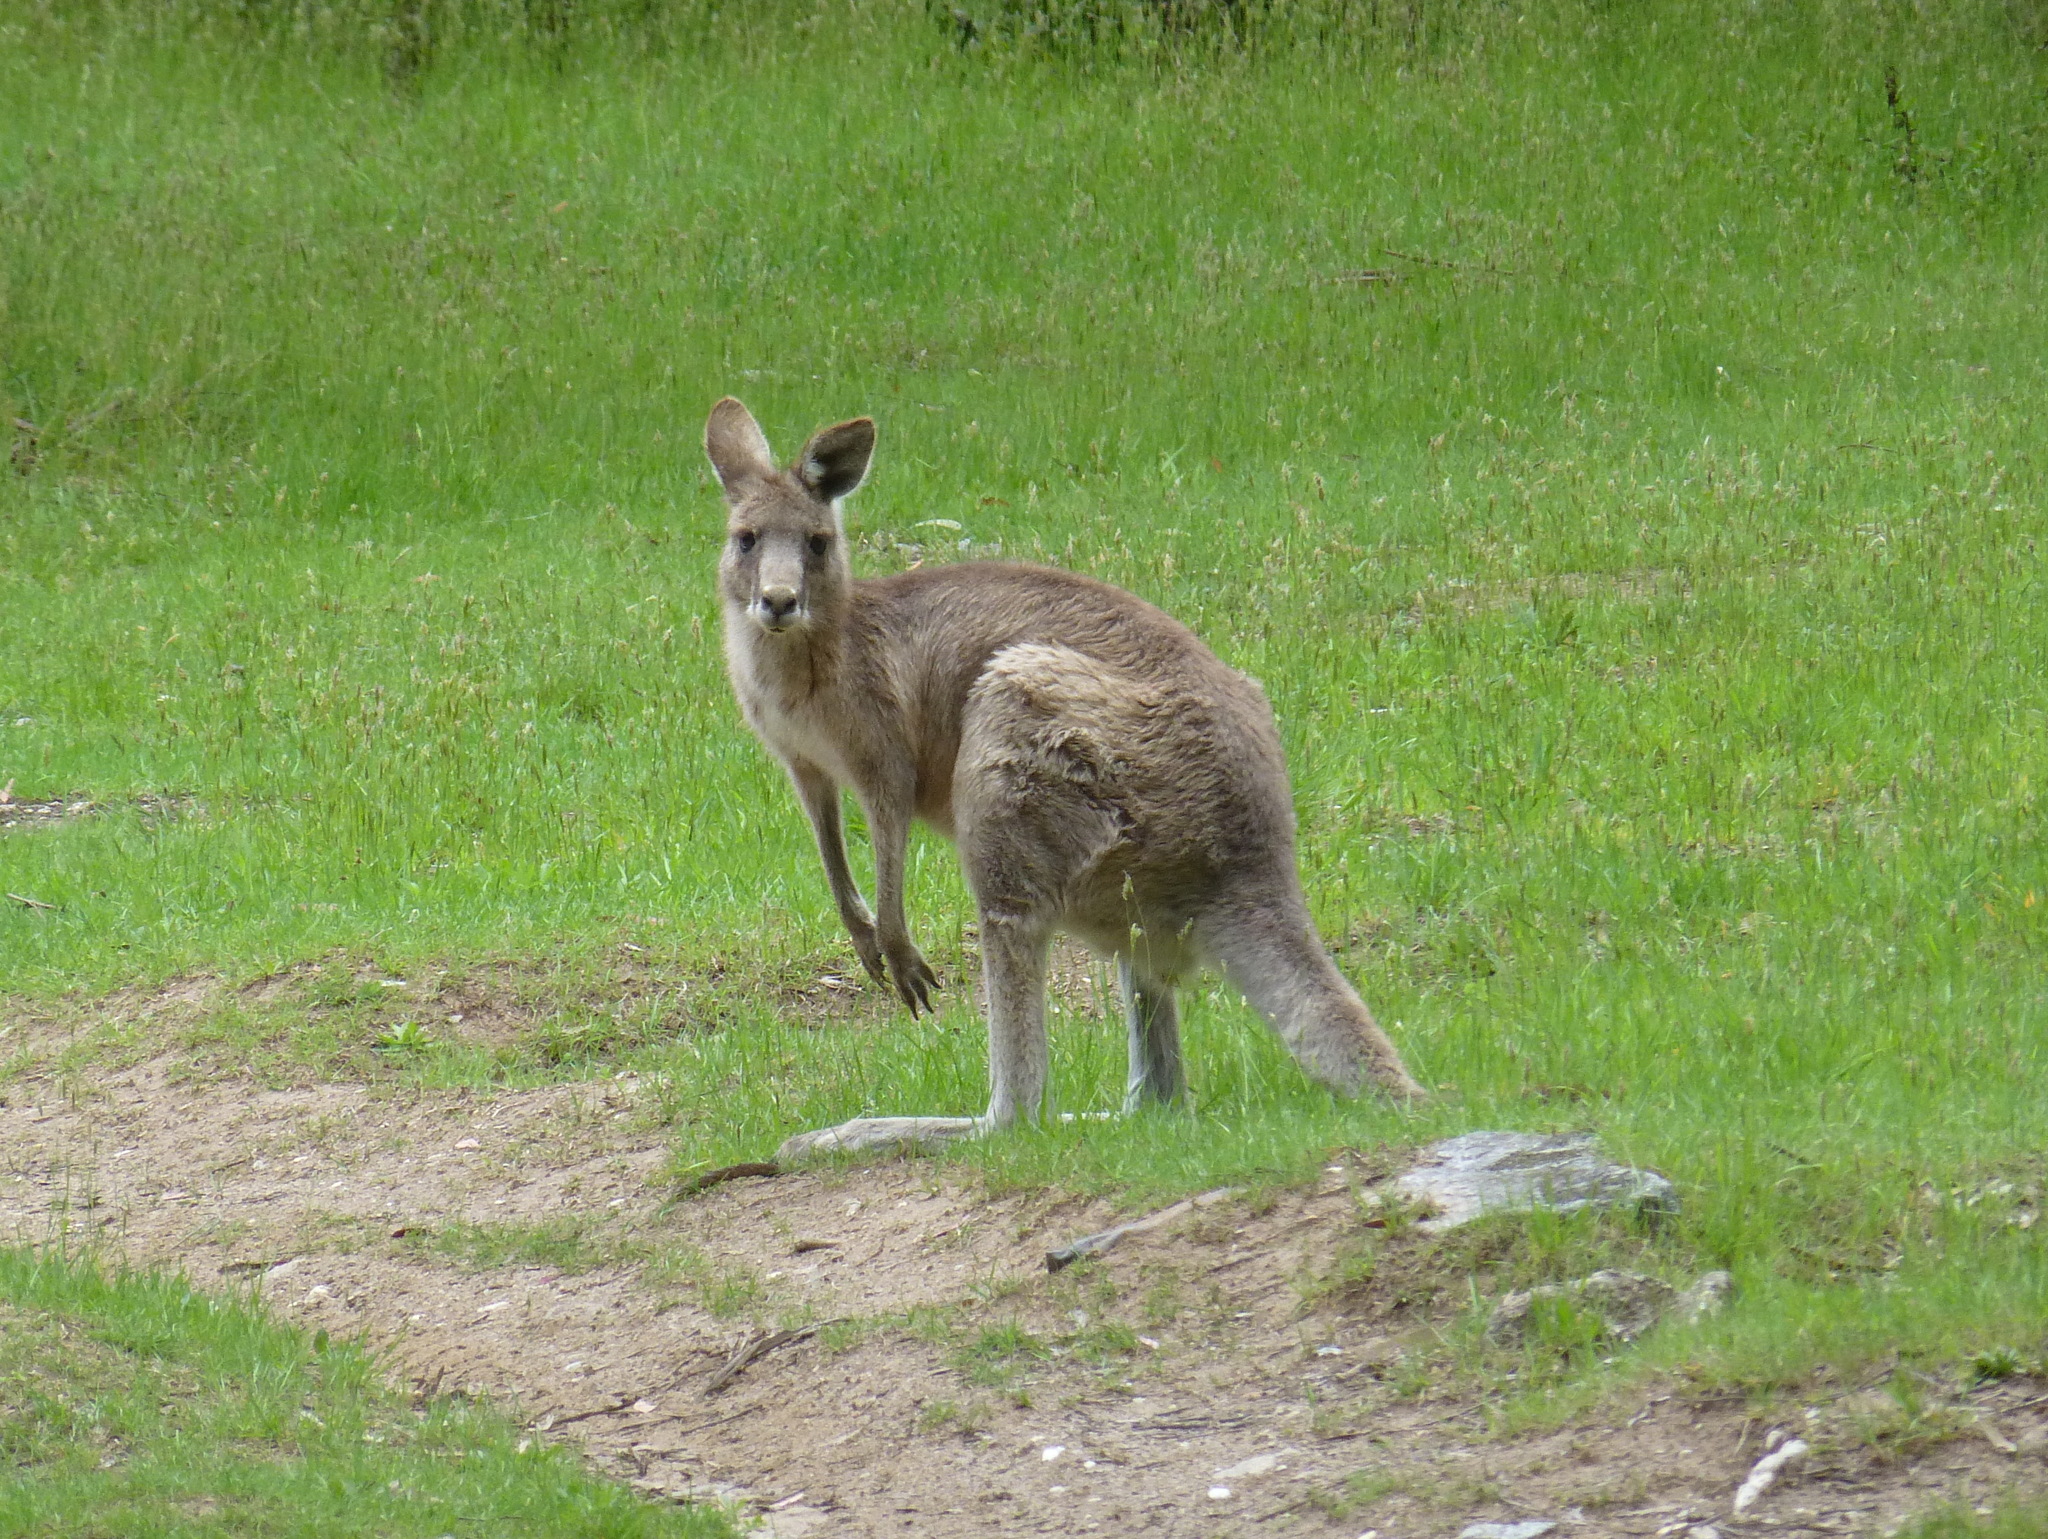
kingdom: Animalia
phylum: Chordata
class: Mammalia
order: Diprotodontia
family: Macropodidae
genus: Macropus
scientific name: Macropus giganteus
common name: Eastern grey kangaroo
